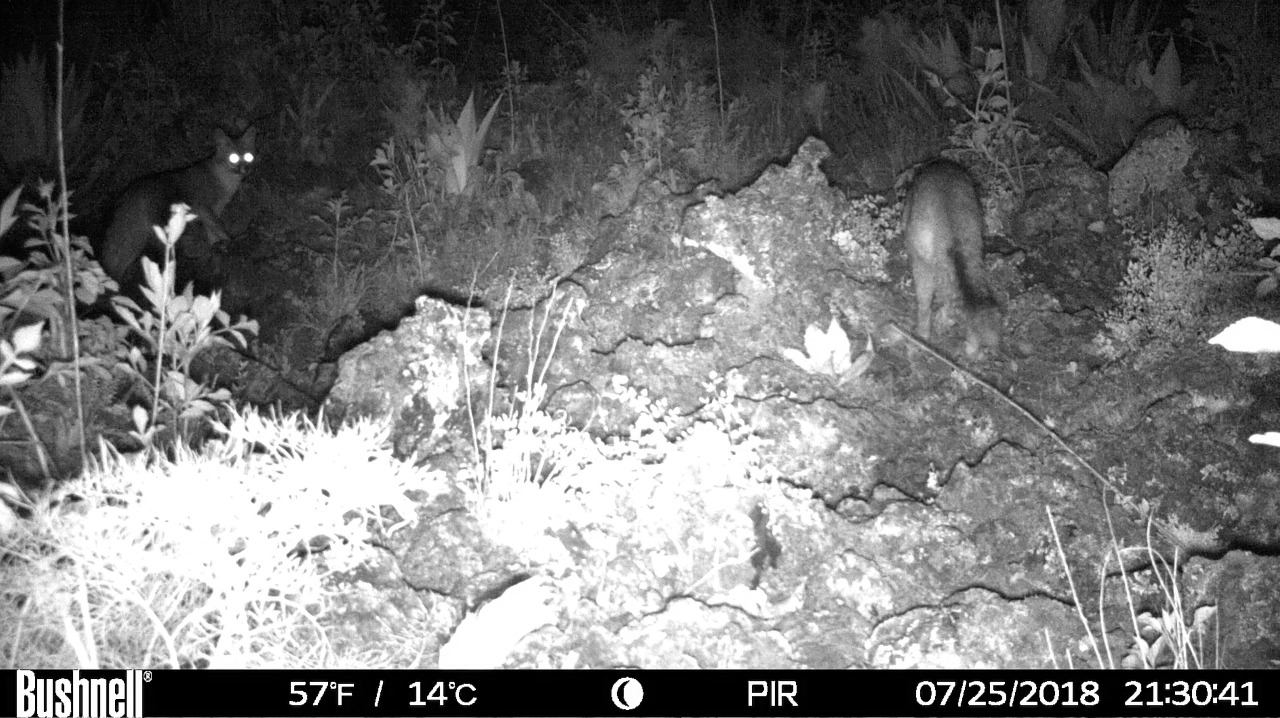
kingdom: Animalia
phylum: Chordata
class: Mammalia
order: Carnivora
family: Canidae
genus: Urocyon
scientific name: Urocyon cinereoargenteus
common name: Gray fox
